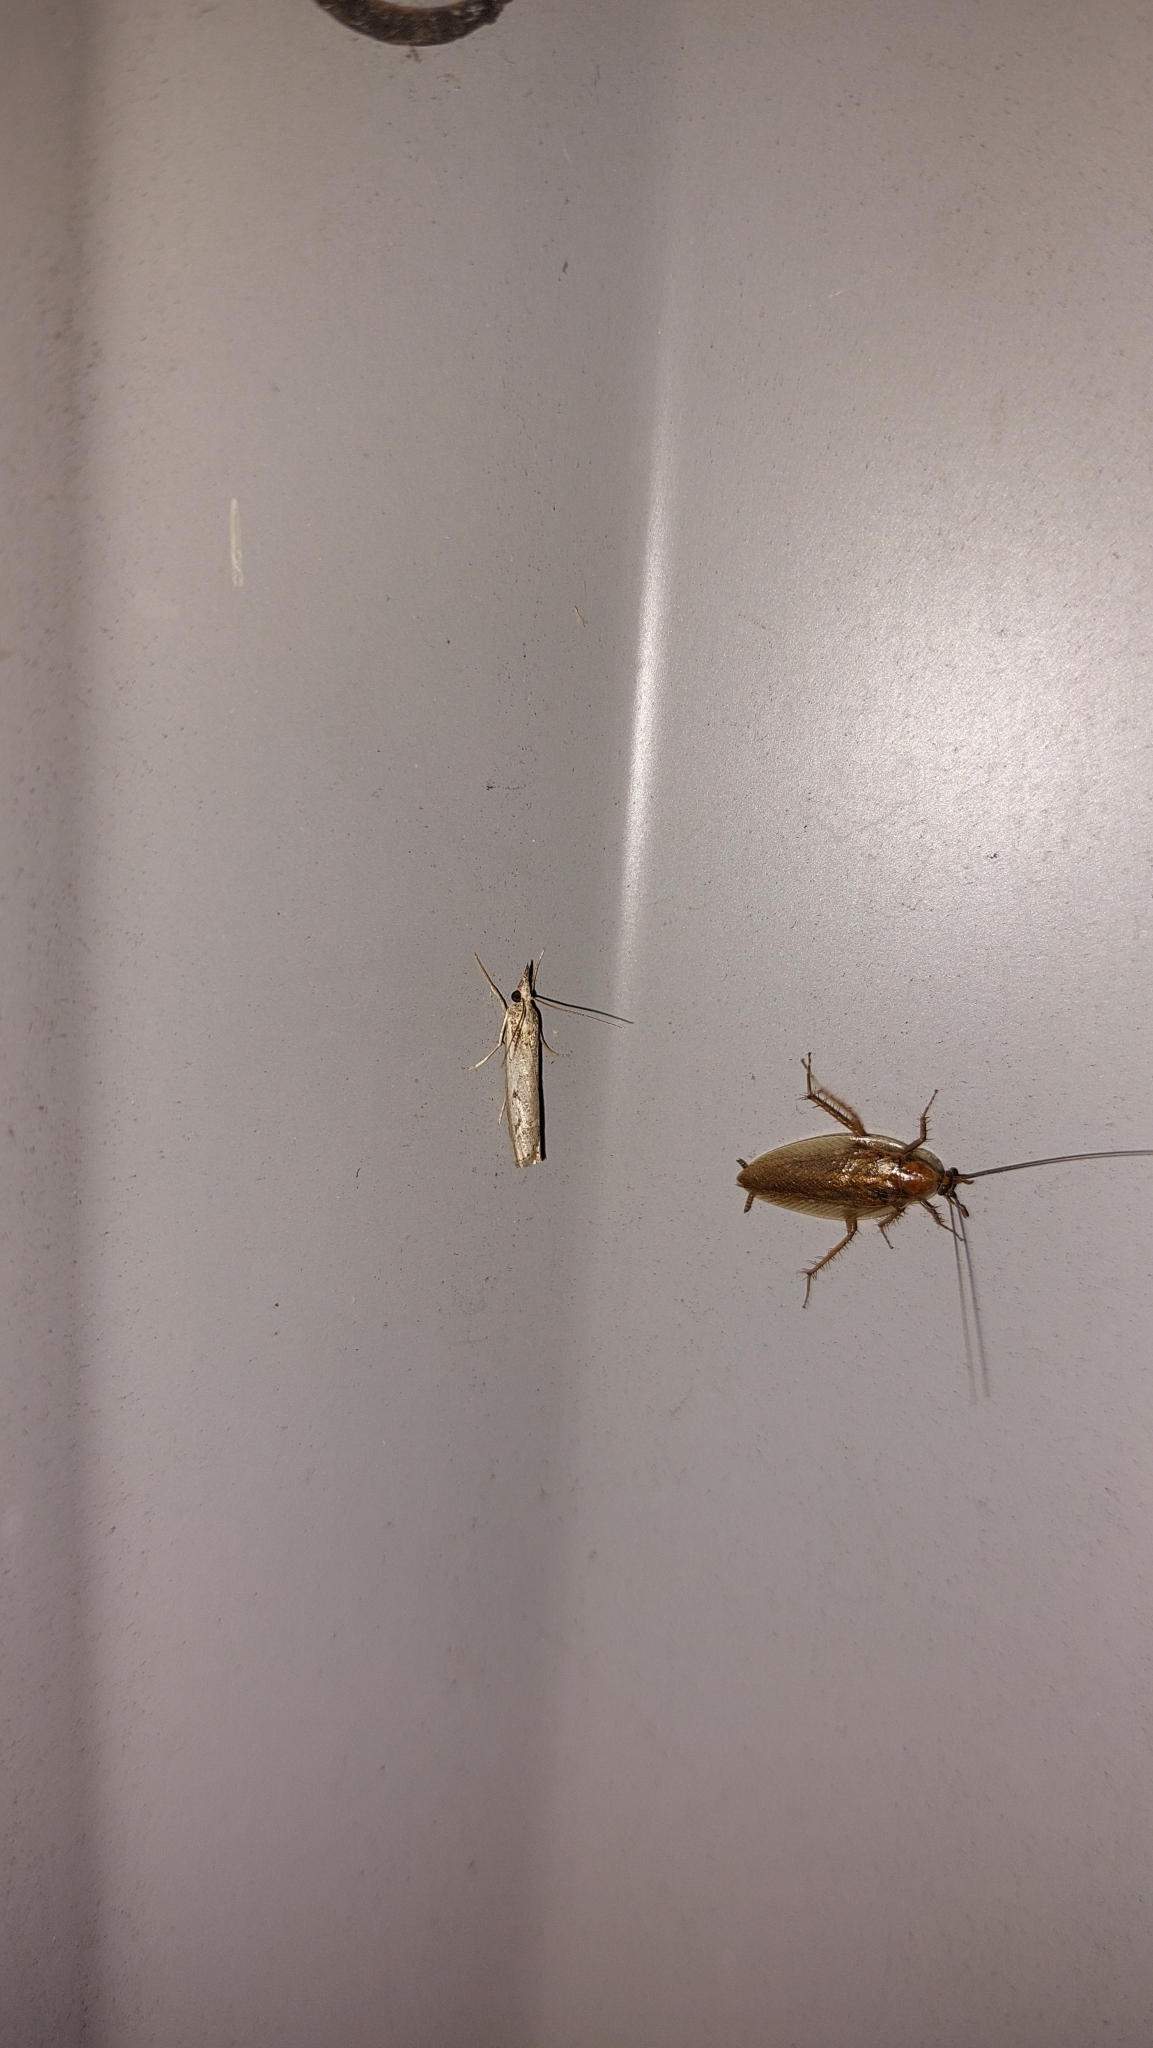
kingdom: Animalia
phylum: Arthropoda
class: Insecta
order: Blattodea
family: Ectobiidae
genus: Ectobius
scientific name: Ectobius vittiventris
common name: Garden cockroach
